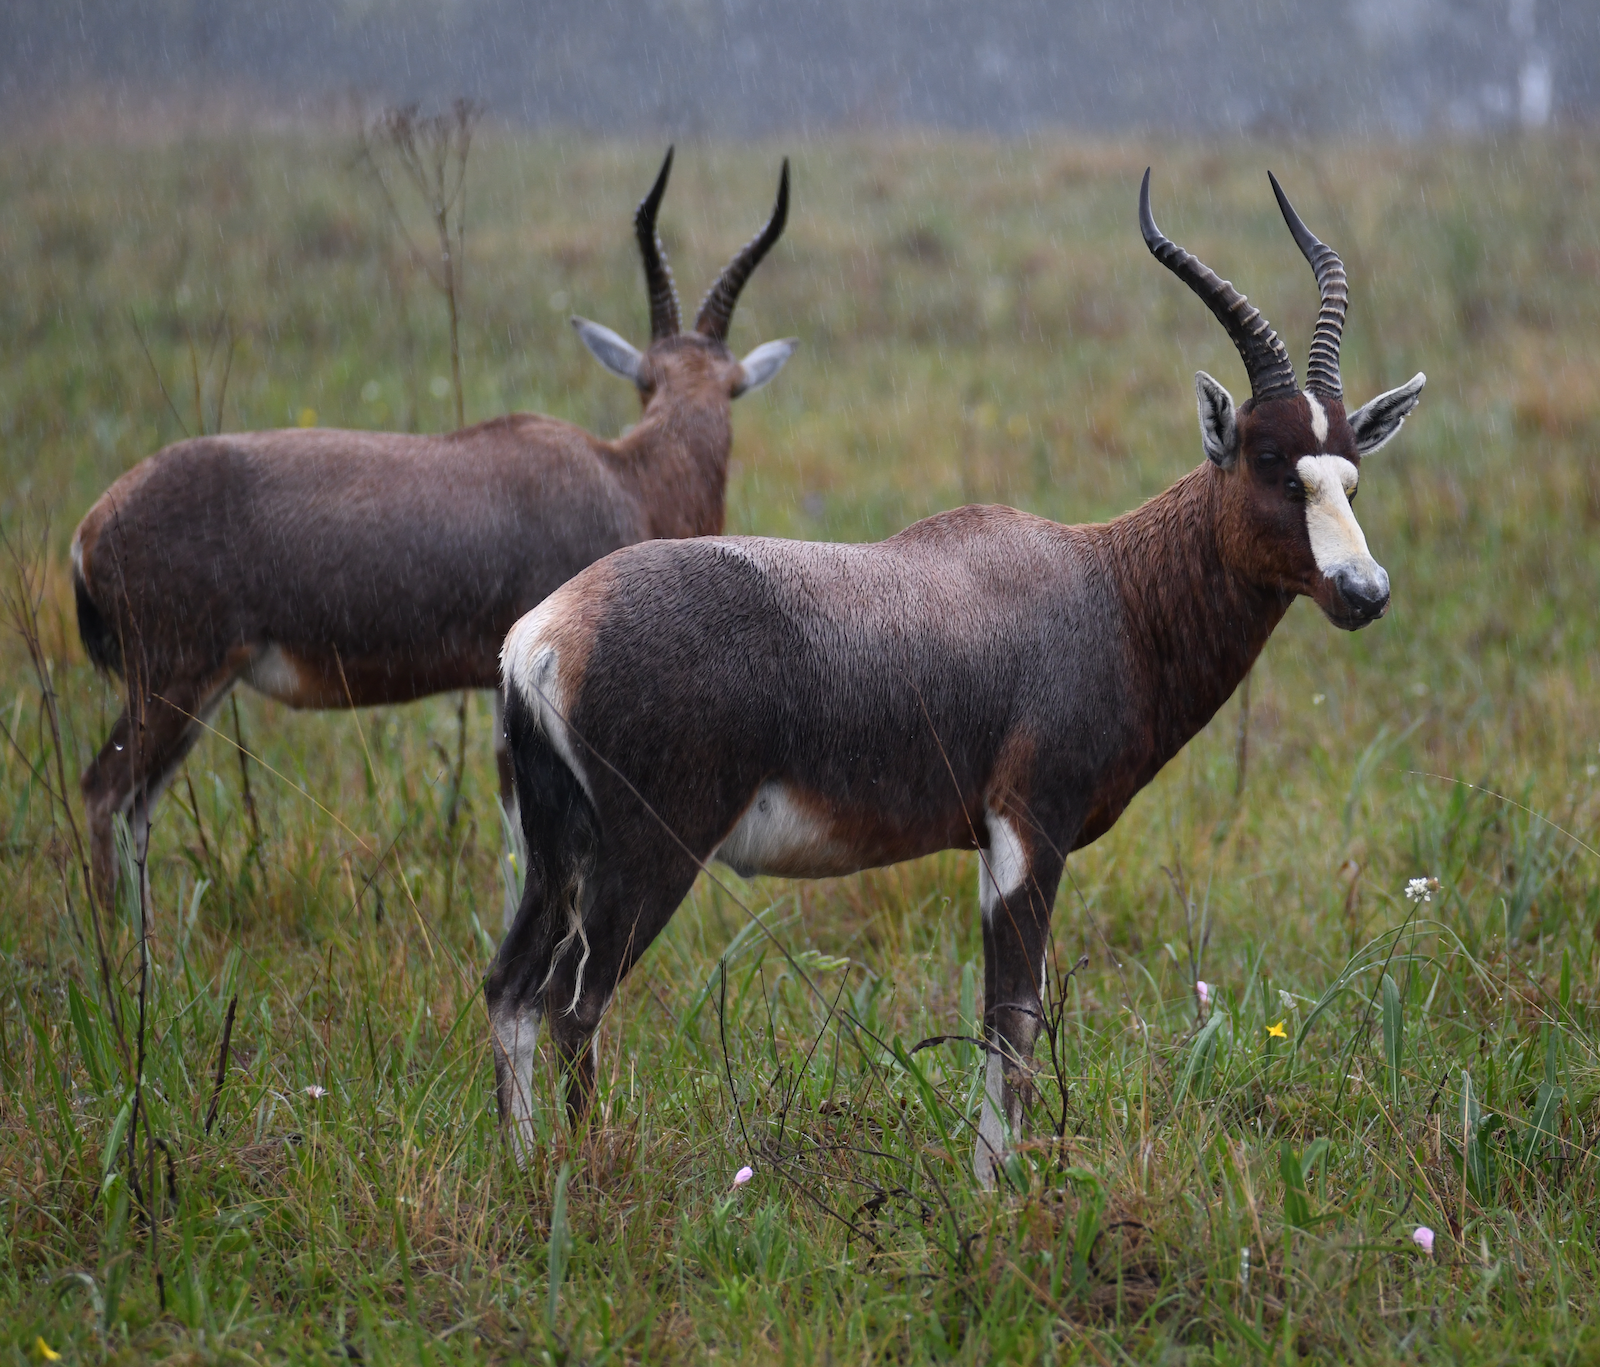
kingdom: Animalia
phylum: Chordata
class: Mammalia
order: Artiodactyla
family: Bovidae
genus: Damaliscus
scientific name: Damaliscus pygargus
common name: Bontebok
